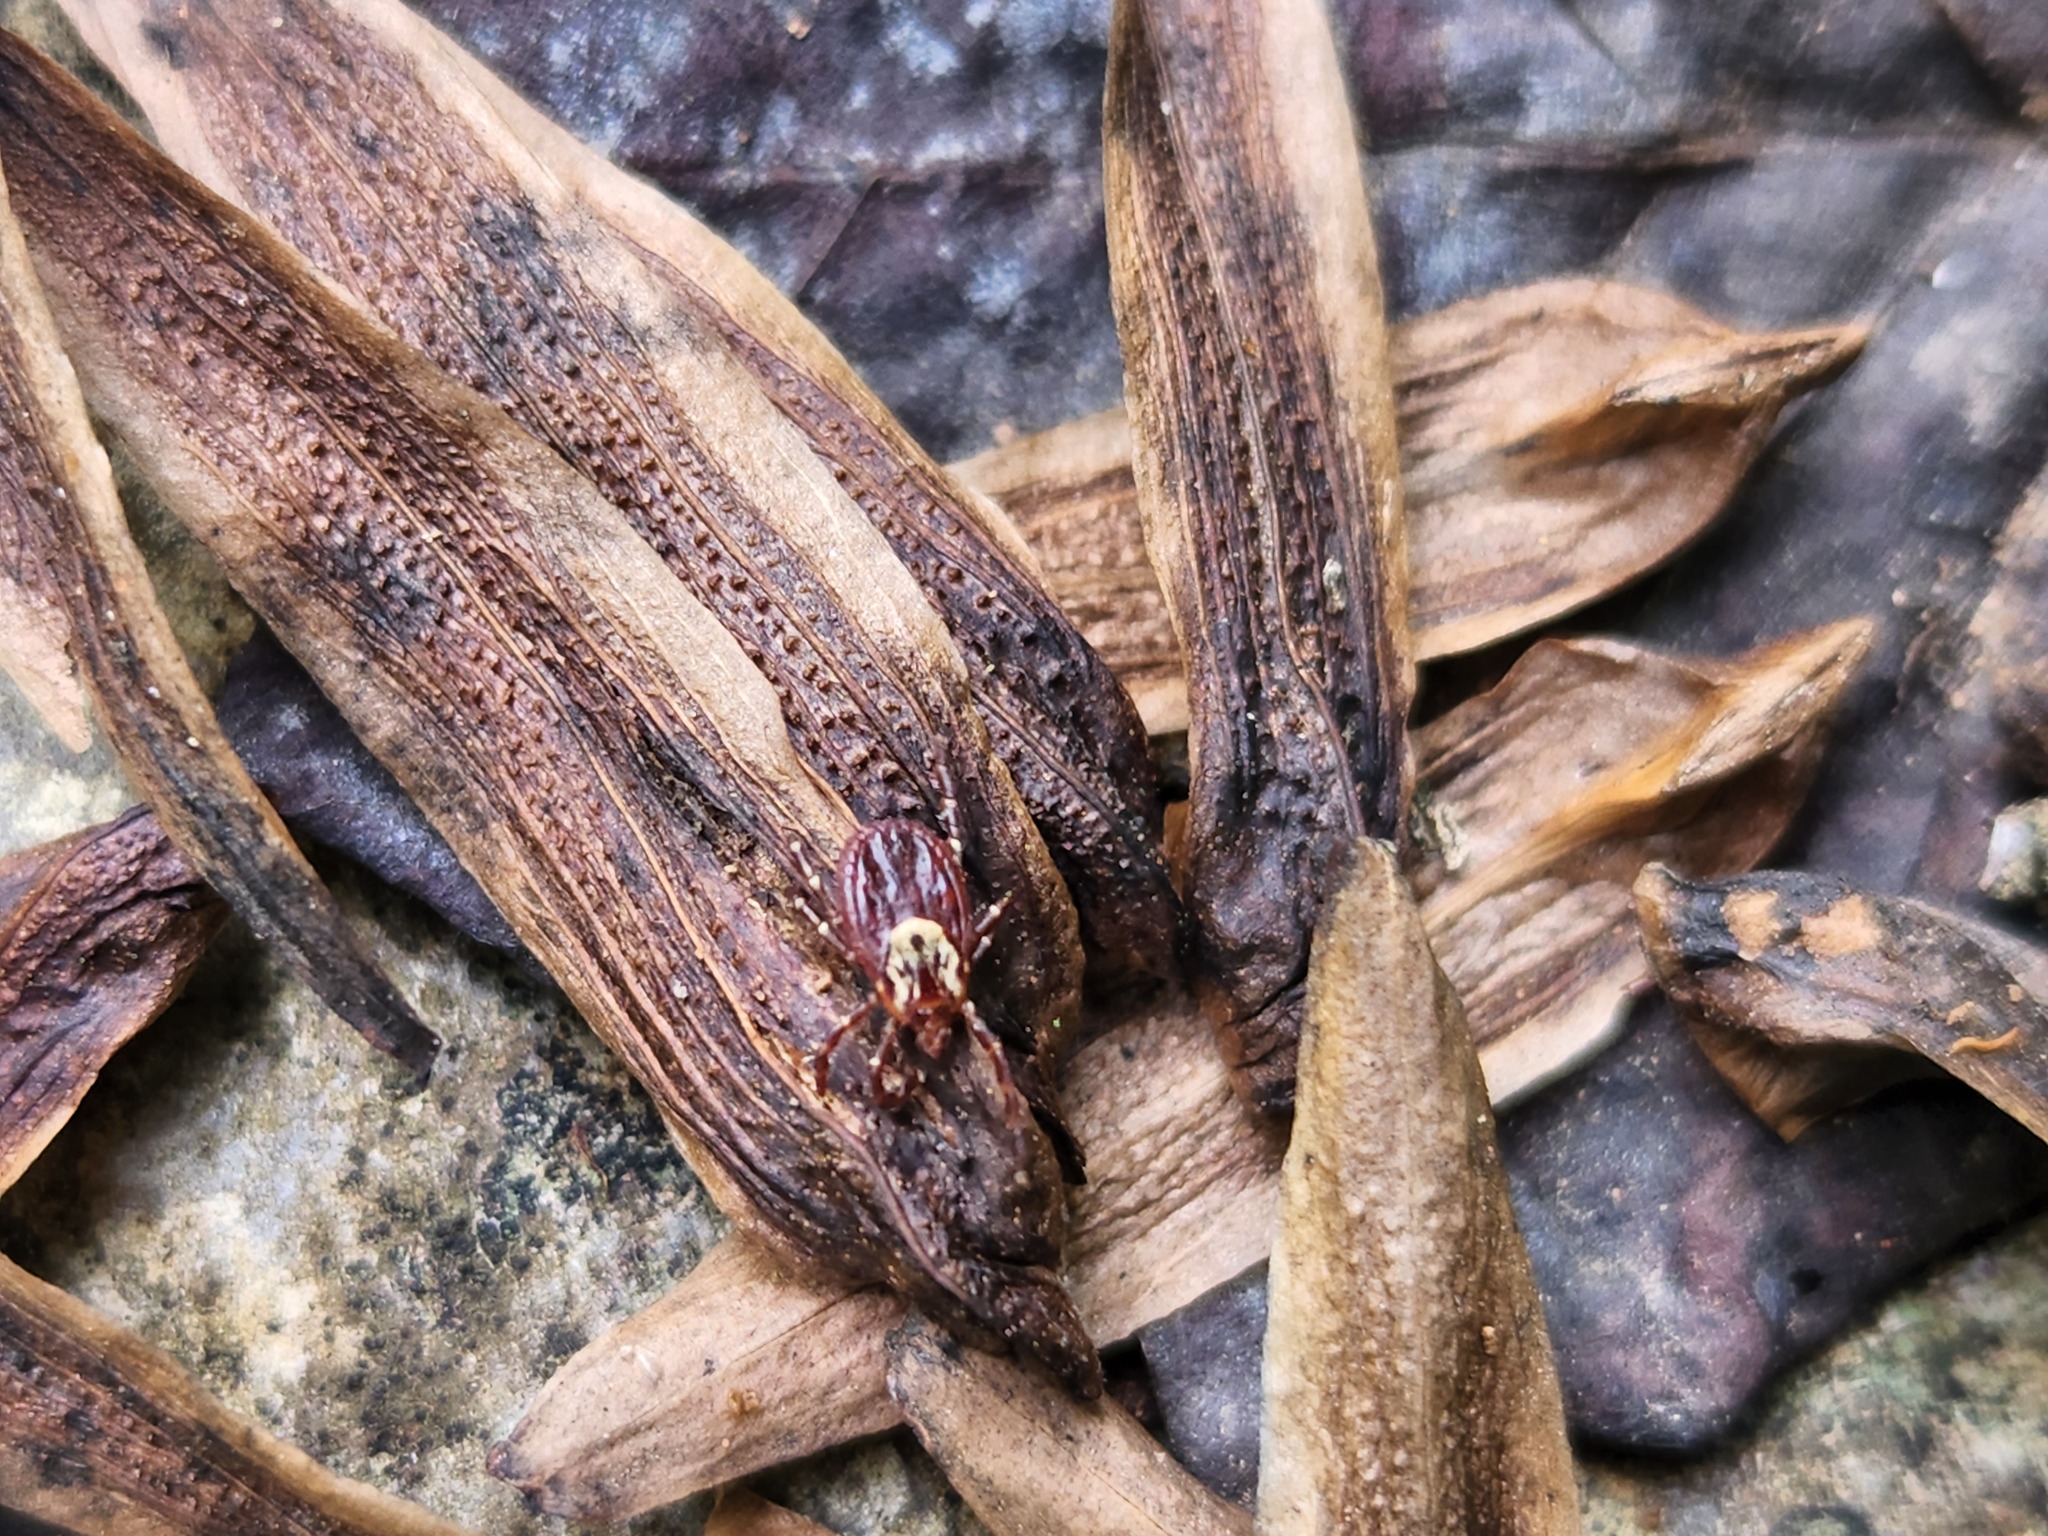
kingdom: Animalia
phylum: Arthropoda
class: Arachnida
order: Ixodida
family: Ixodidae
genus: Dermacentor
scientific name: Dermacentor variabilis
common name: American dog tick
